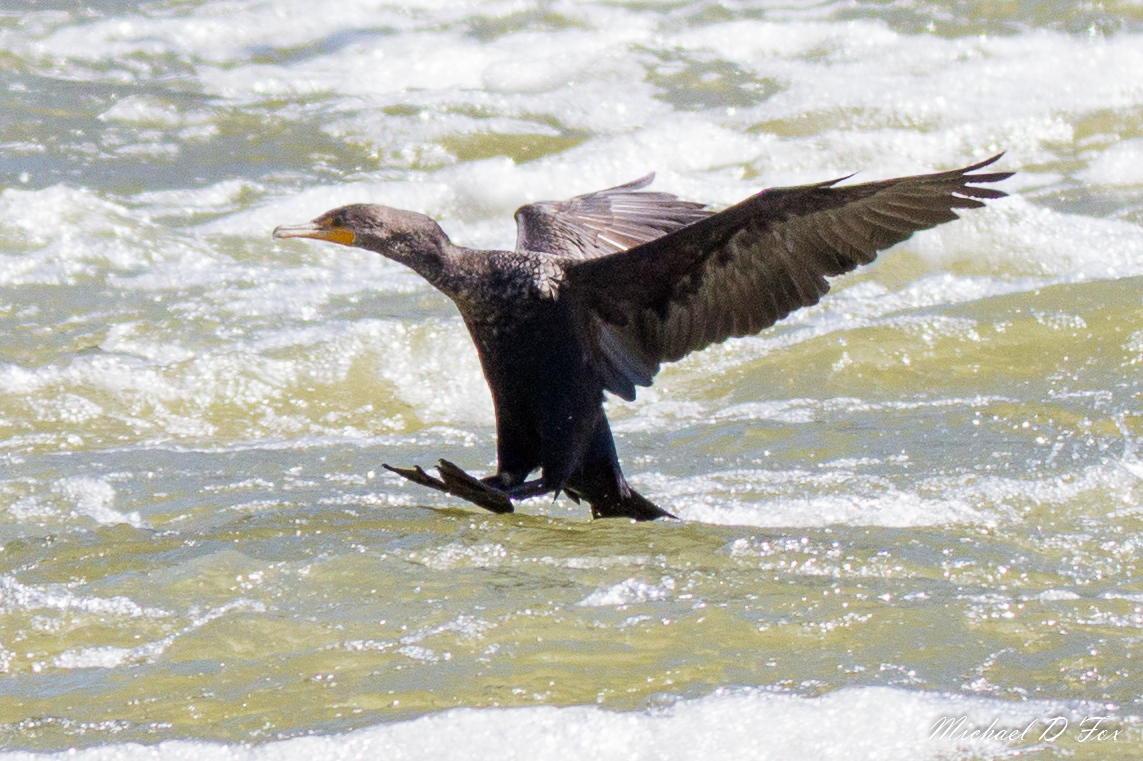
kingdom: Animalia
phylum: Chordata
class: Aves
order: Suliformes
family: Phalacrocoracidae
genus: Phalacrocorax
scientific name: Phalacrocorax auritus
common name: Double-crested cormorant
